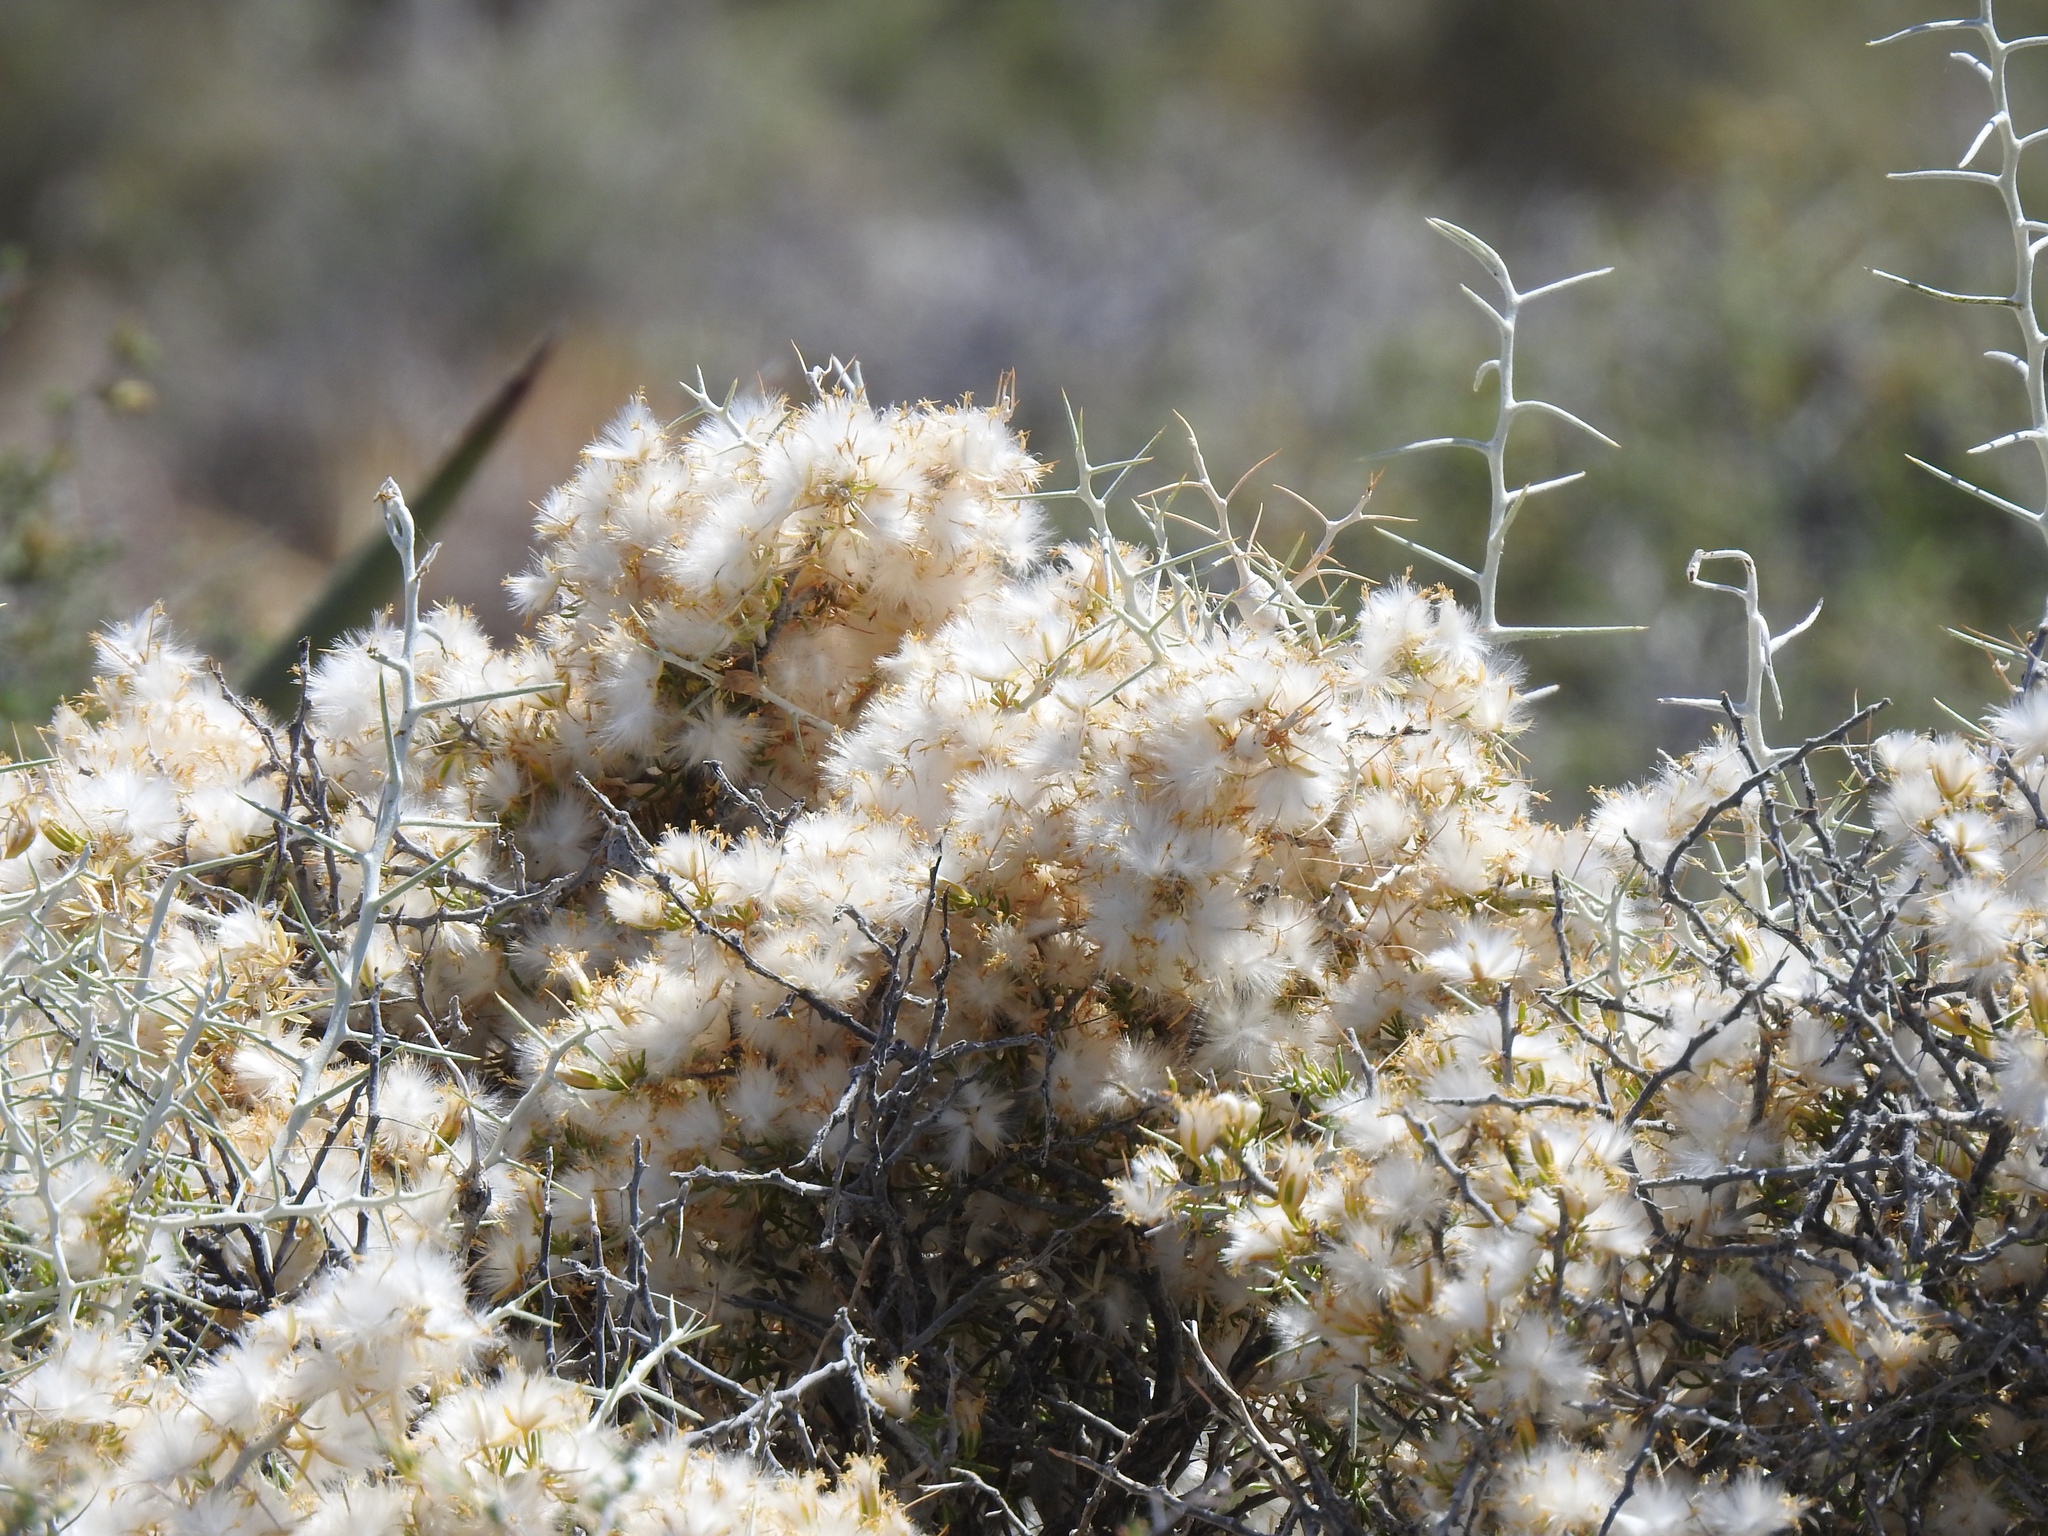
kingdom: Plantae
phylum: Tracheophyta
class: Magnoliopsida
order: Asterales
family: Asteraceae
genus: Tetradymia
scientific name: Tetradymia axillaris
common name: Long-spine horsebrush
